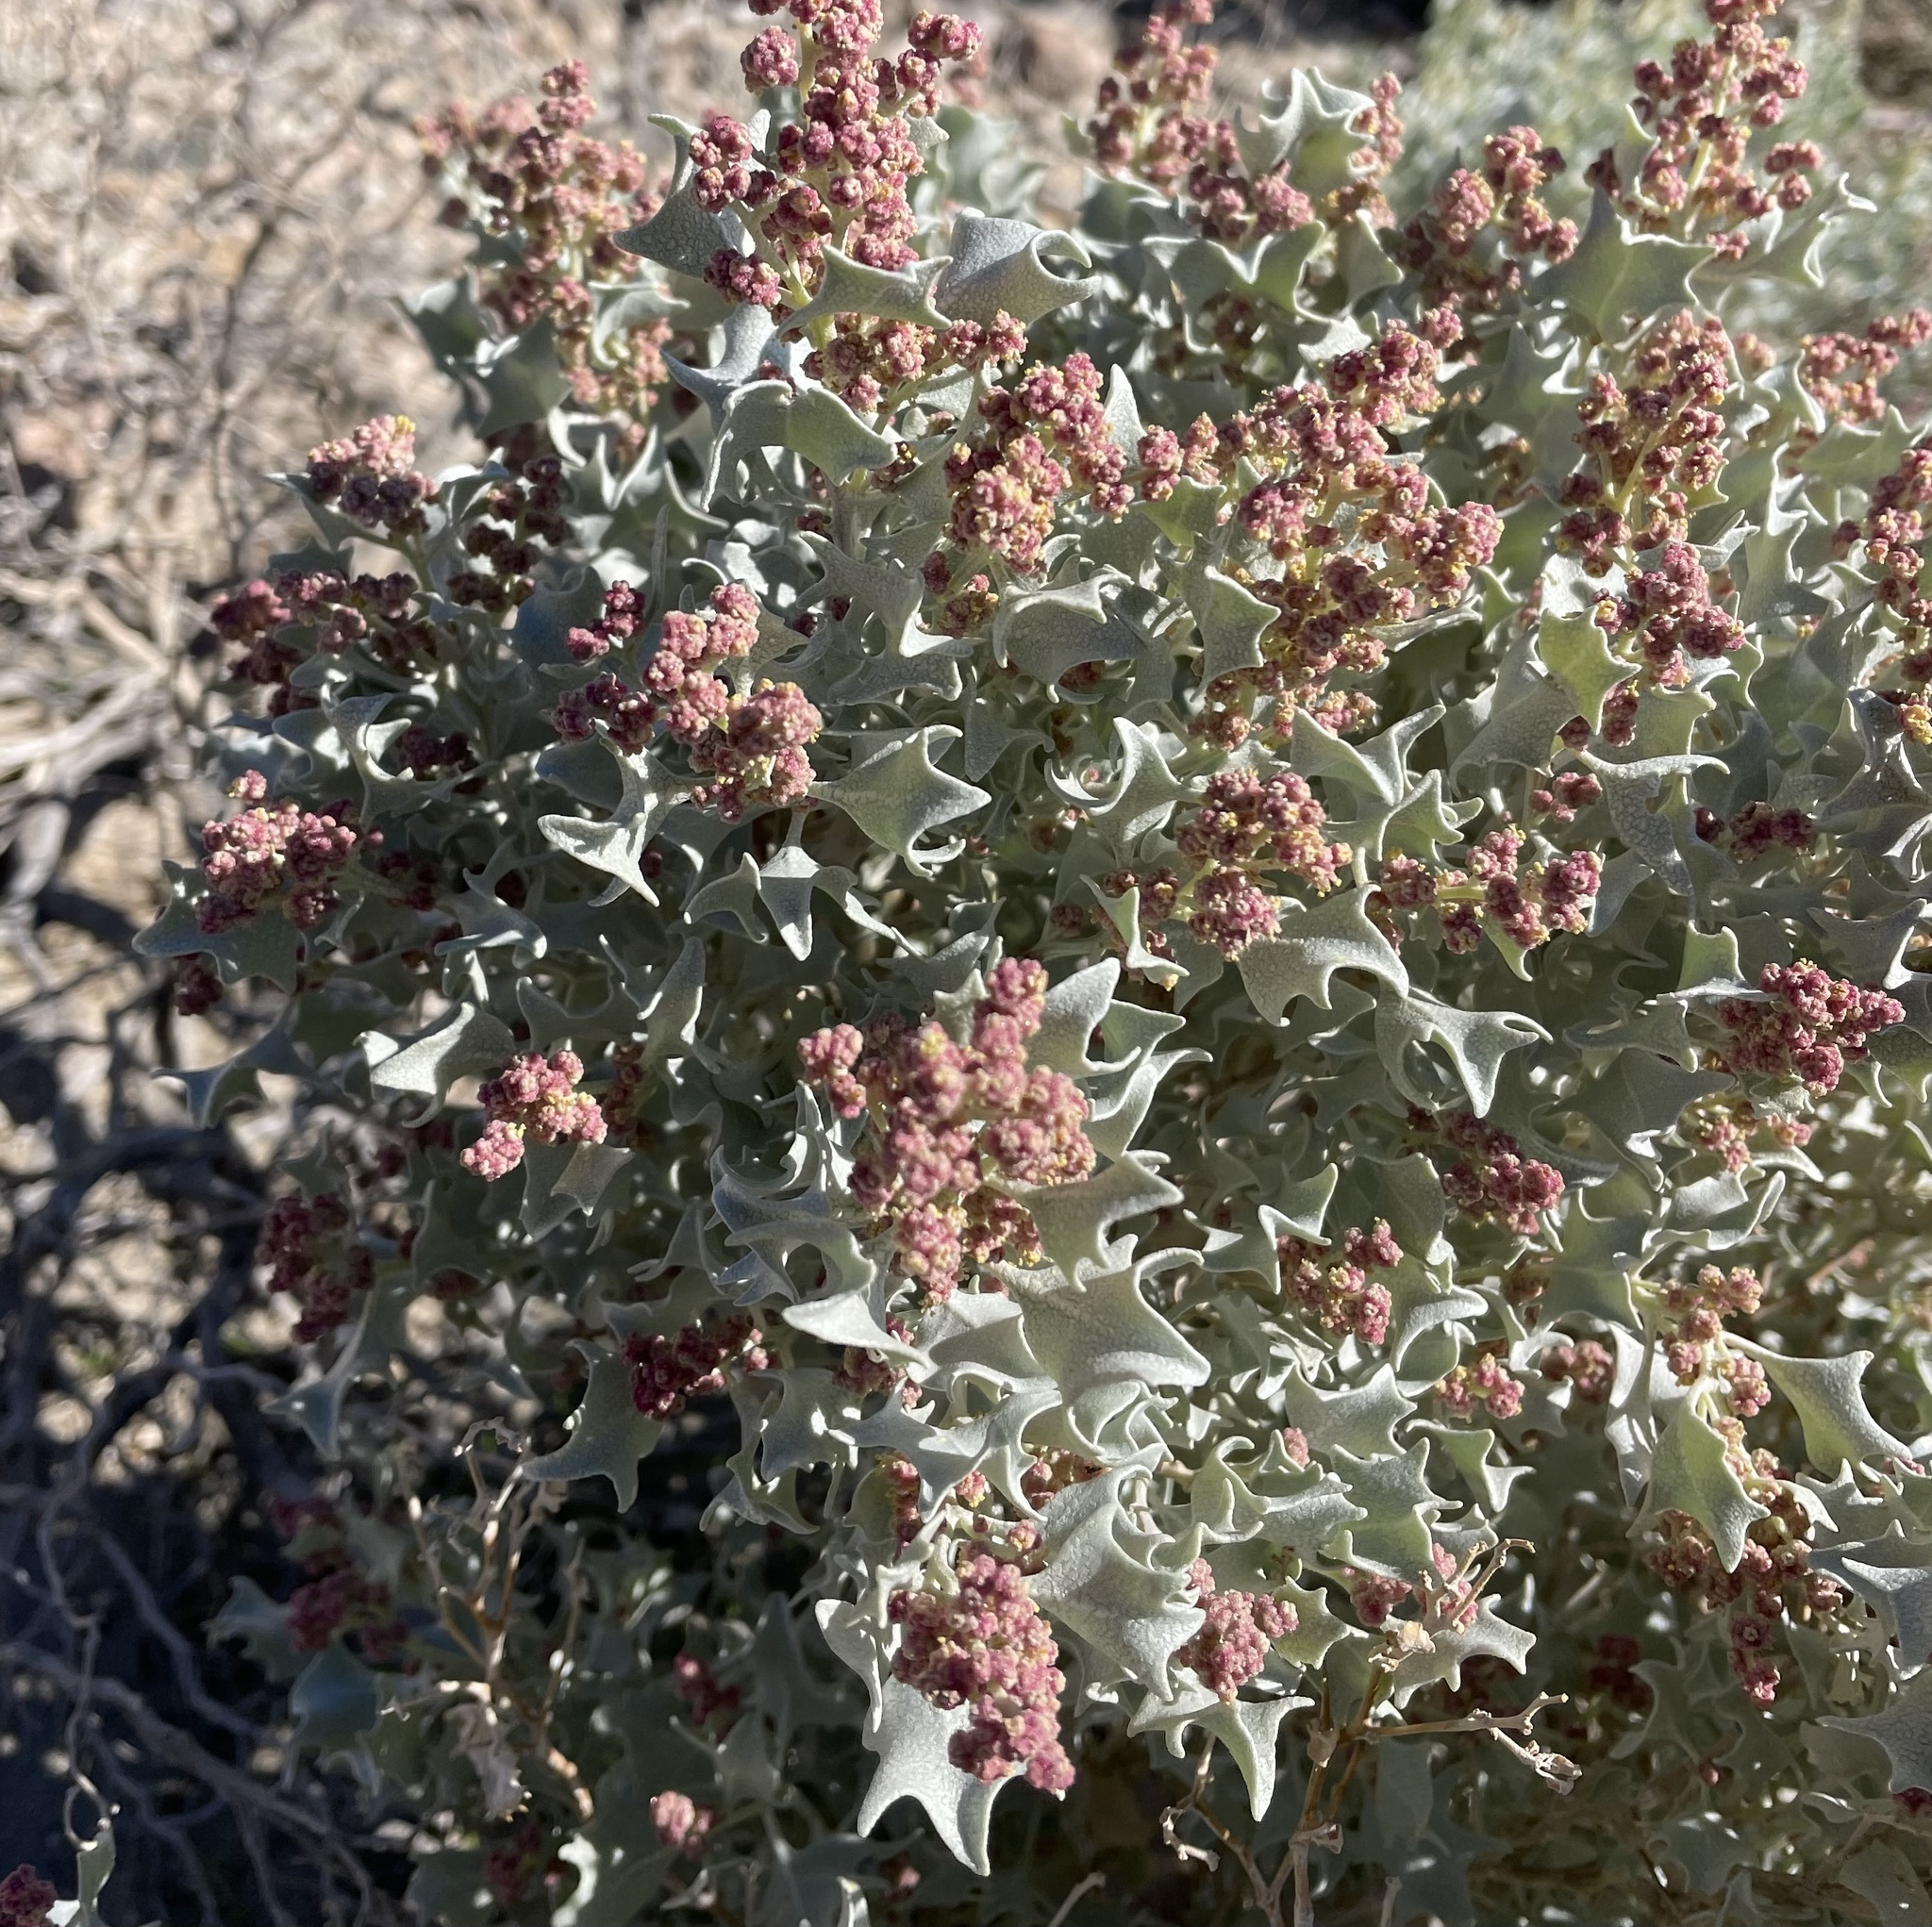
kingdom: Plantae
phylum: Tracheophyta
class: Magnoliopsida
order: Caryophyllales
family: Amaranthaceae
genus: Atriplex
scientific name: Atriplex hymenelytra
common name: Desert-holly
